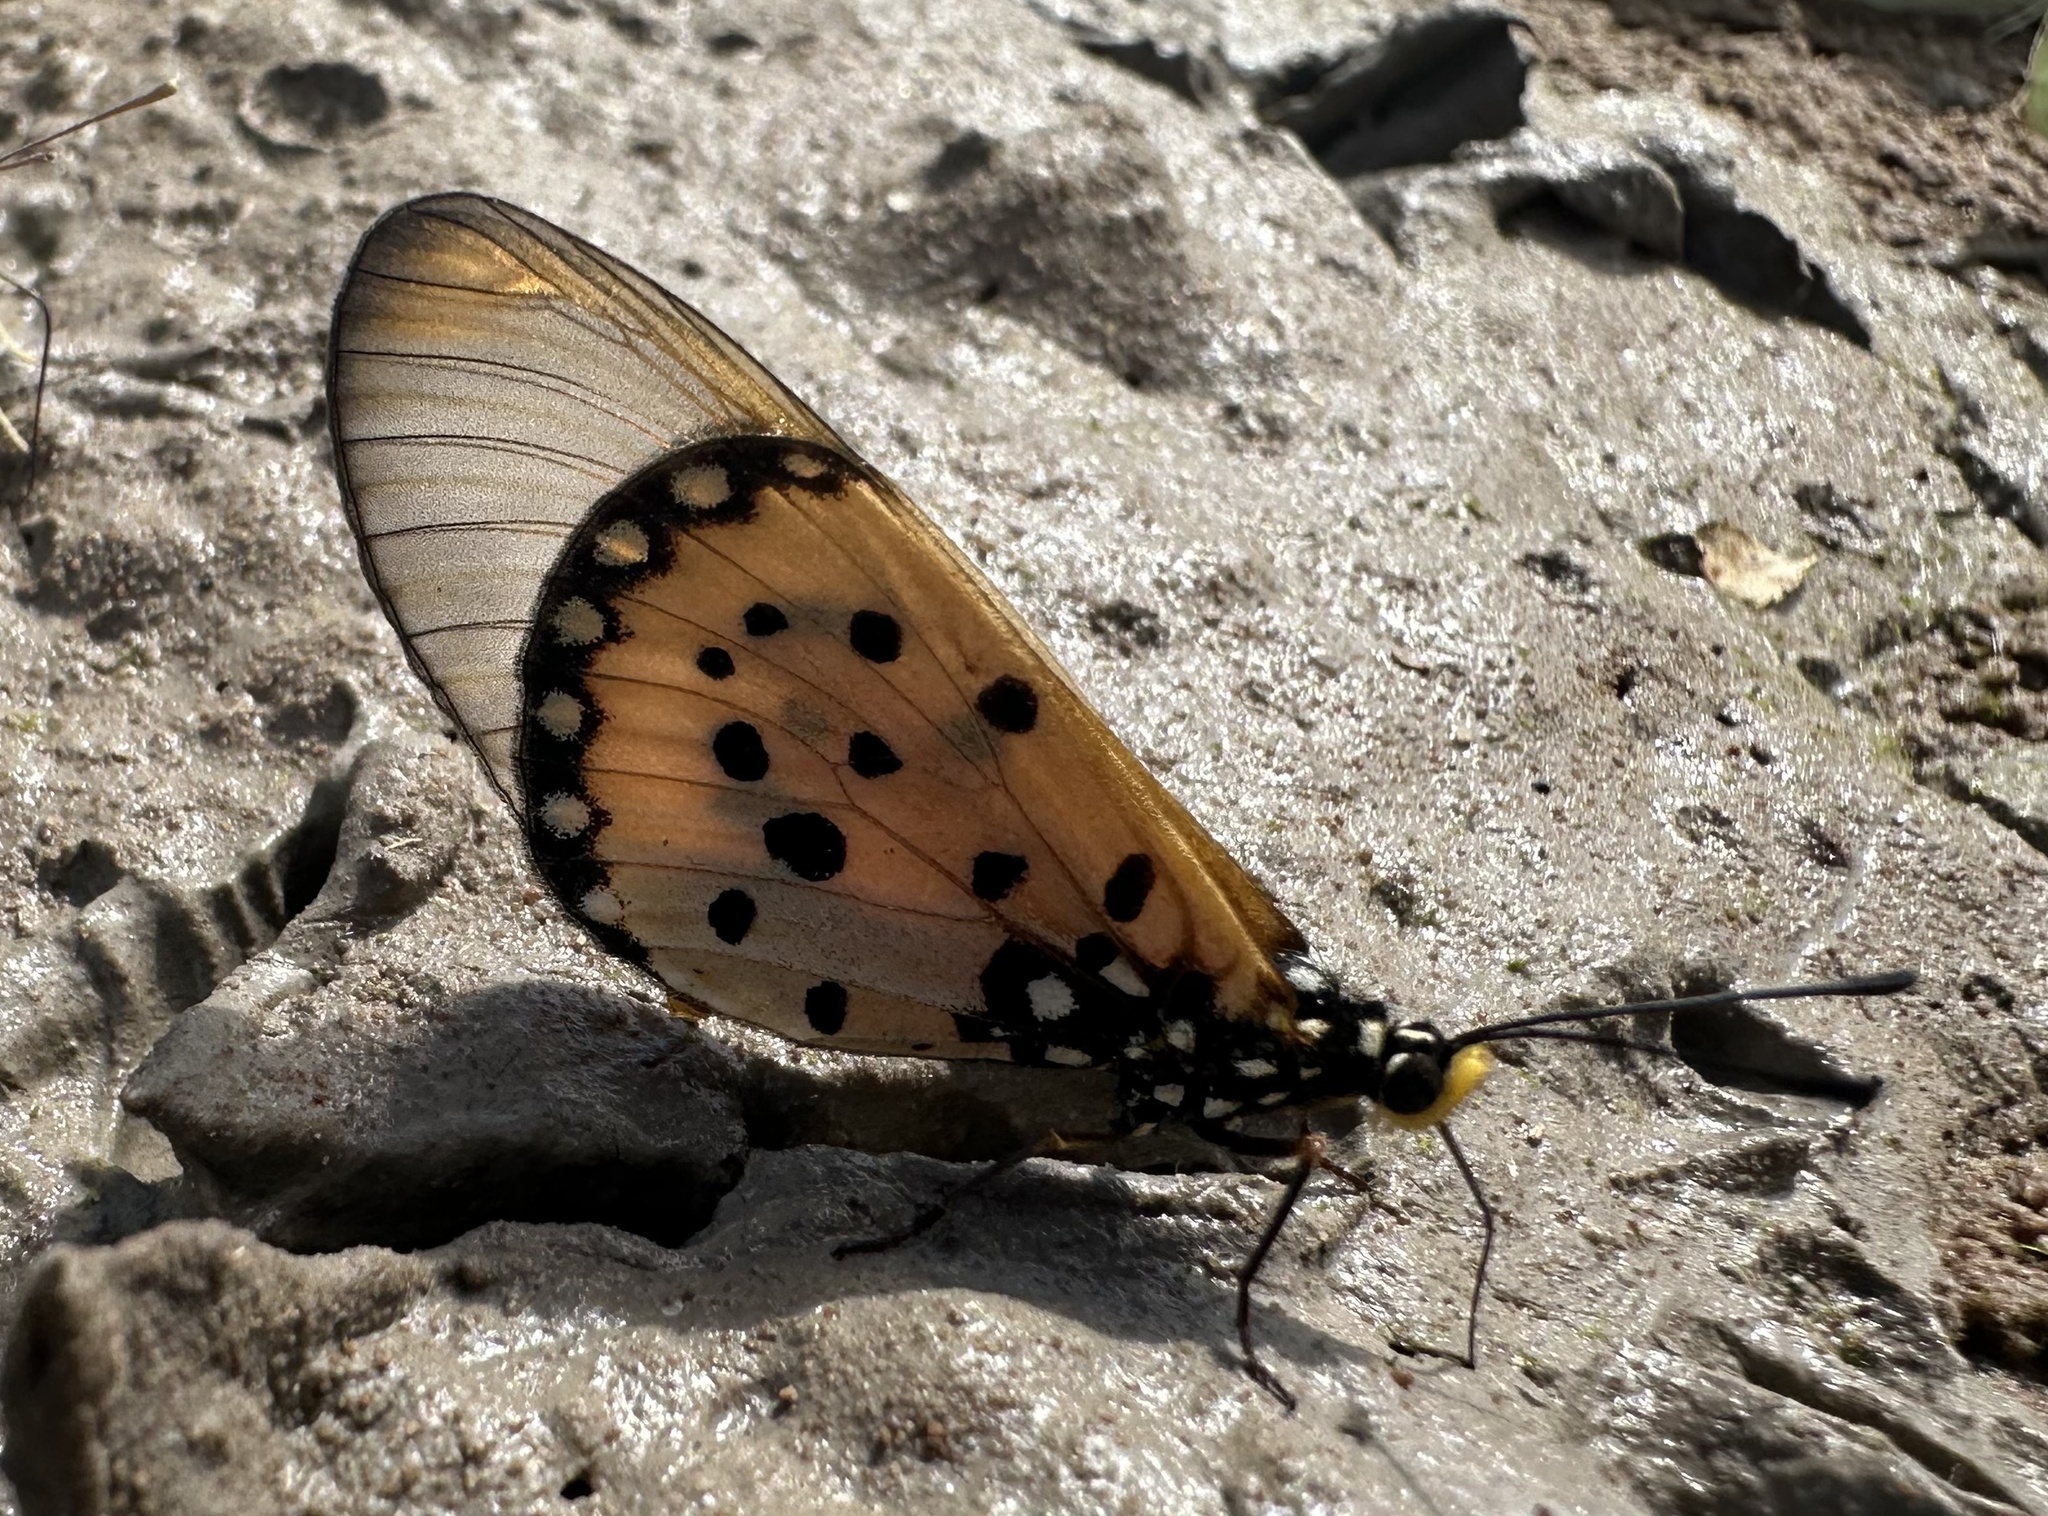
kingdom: Animalia
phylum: Arthropoda
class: Insecta
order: Lepidoptera
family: Nymphalidae
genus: Acraea
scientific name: Acraea neobule
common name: Dancing acraea
